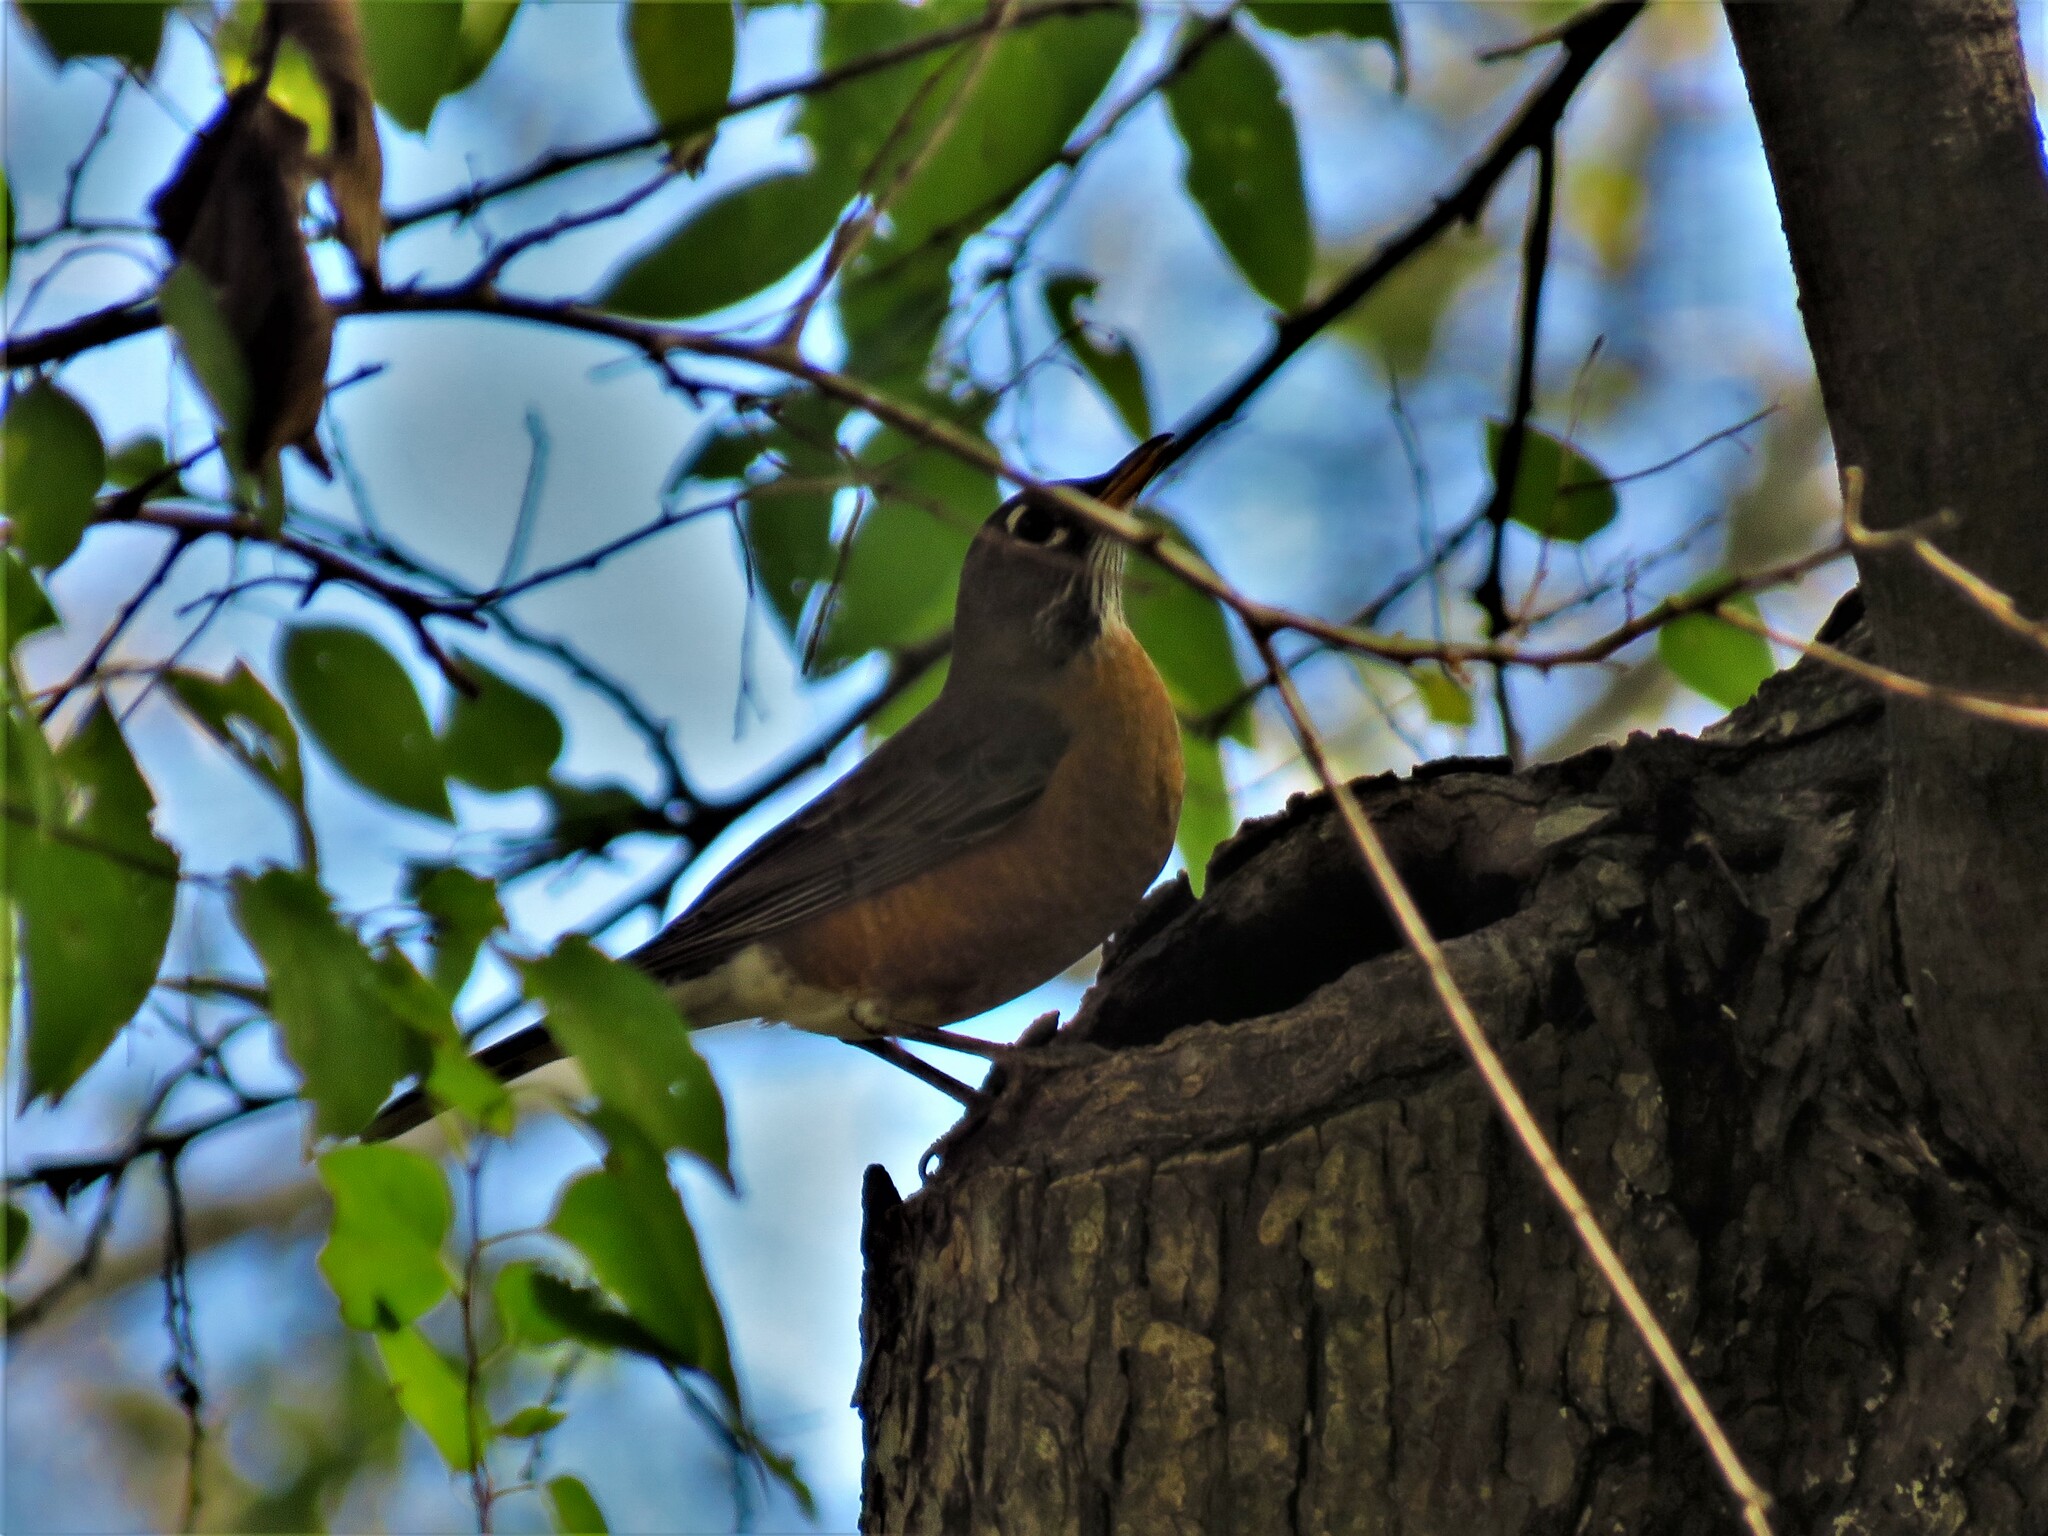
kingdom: Animalia
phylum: Chordata
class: Aves
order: Passeriformes
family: Turdidae
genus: Turdus
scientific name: Turdus migratorius
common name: American robin
